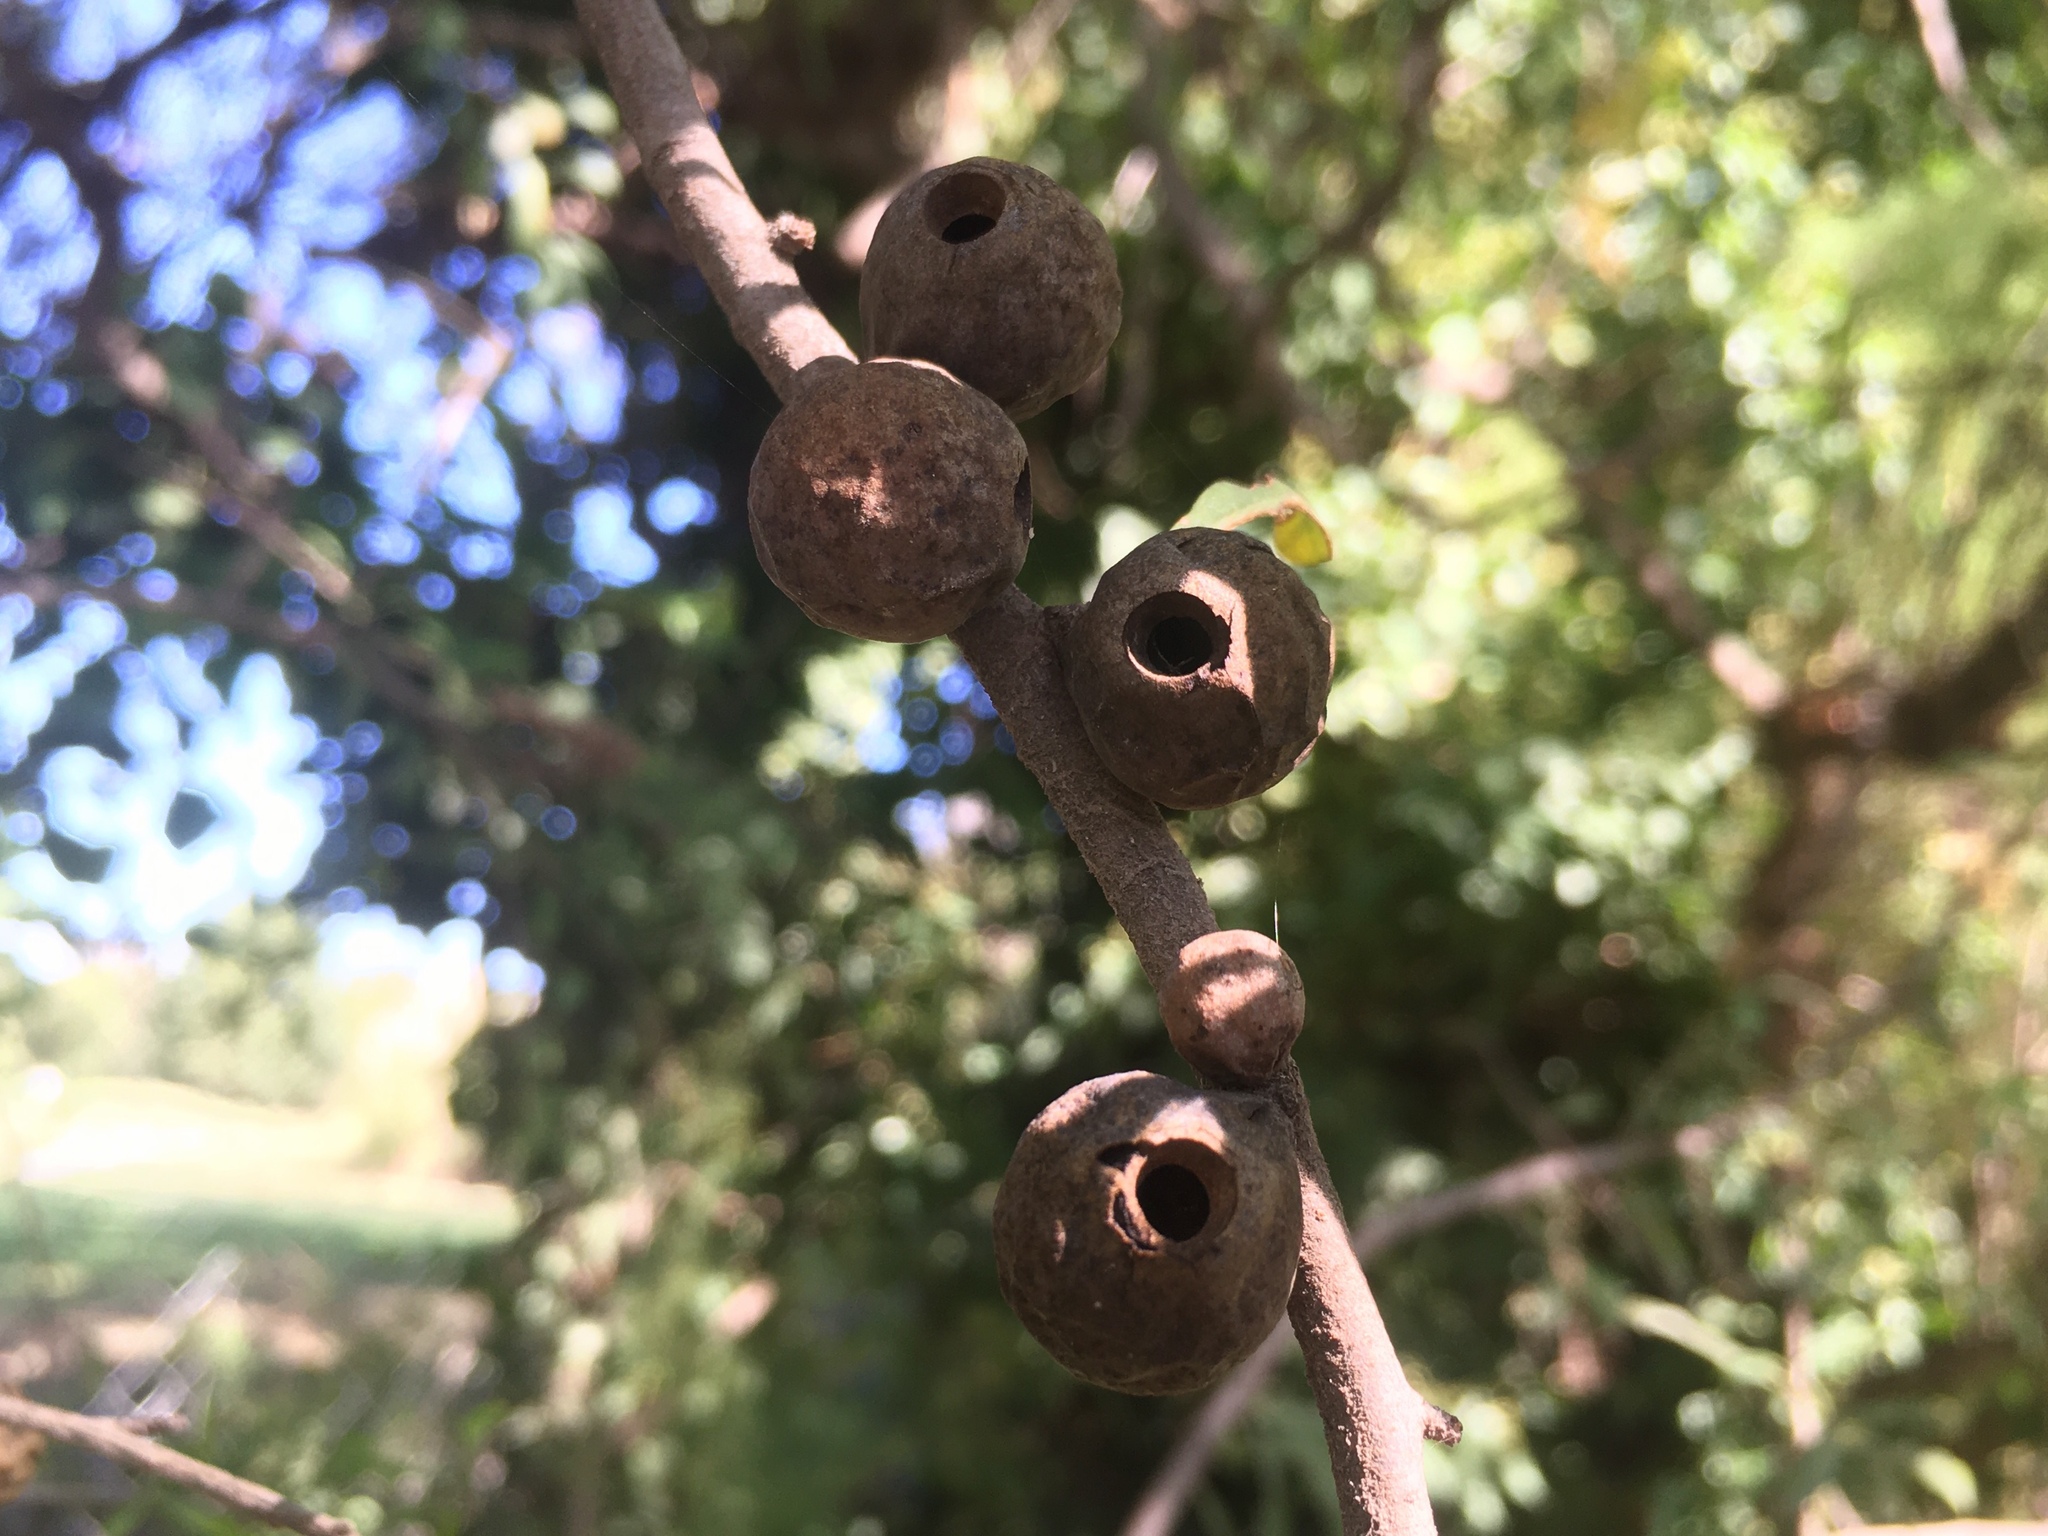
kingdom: Animalia
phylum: Arthropoda
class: Insecta
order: Lepidoptera
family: Cecidosidae
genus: Cecidoses
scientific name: Cecidoses eremita
